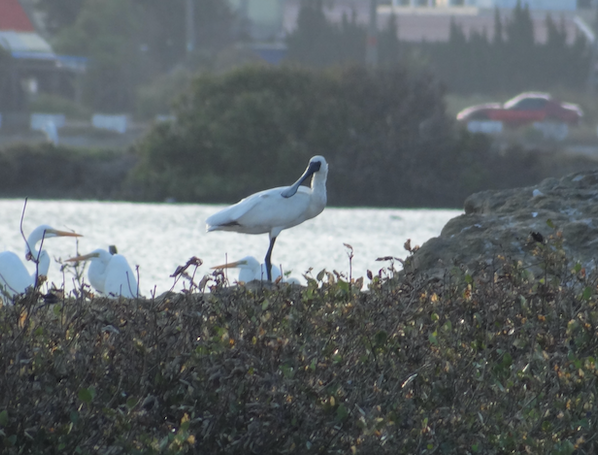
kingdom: Animalia
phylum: Chordata
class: Aves
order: Pelecaniformes
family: Threskiornithidae
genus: Platalea
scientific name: Platalea minor
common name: Black-faced spoonbill
